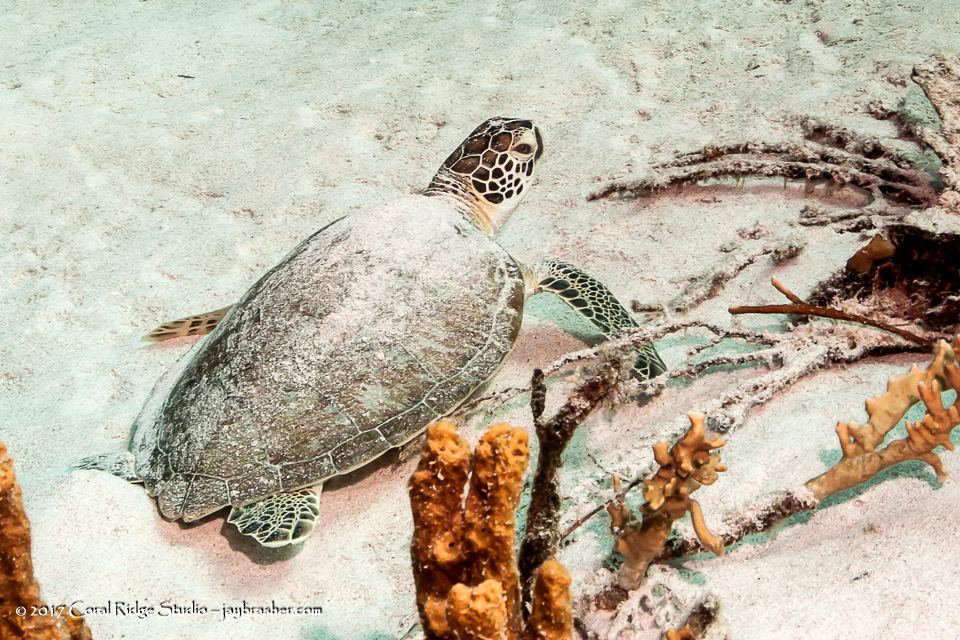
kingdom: Animalia
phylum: Chordata
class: Testudines
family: Cheloniidae
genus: Chelonia
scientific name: Chelonia mydas
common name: Green turtle
